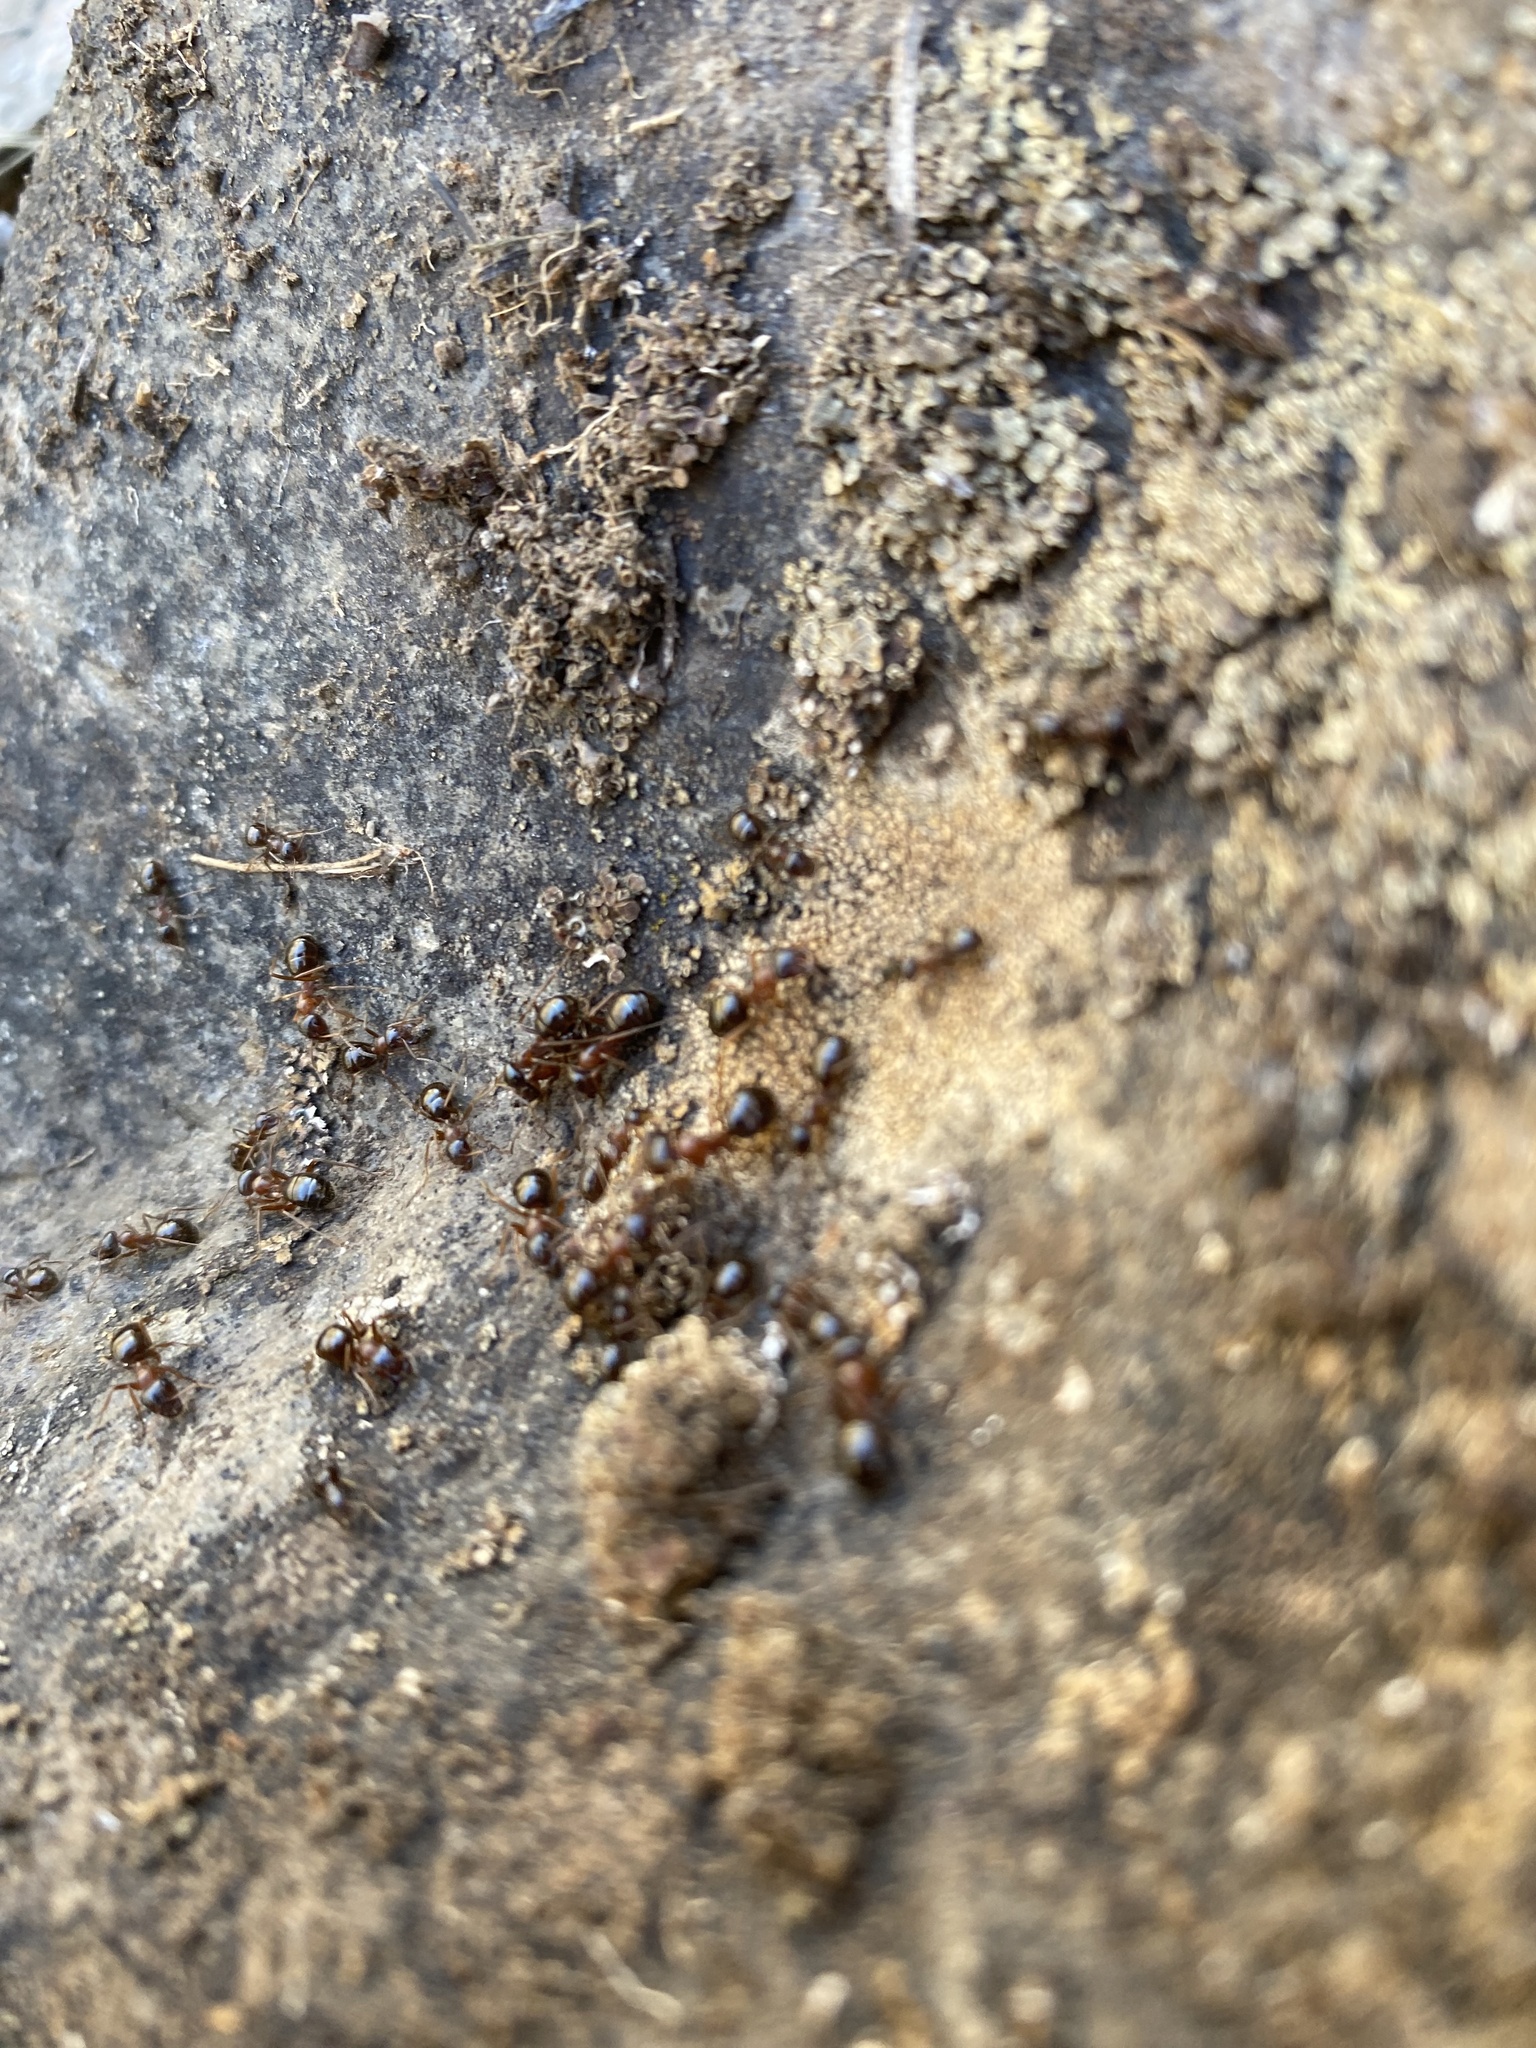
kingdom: Animalia
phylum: Arthropoda
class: Insecta
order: Hymenoptera
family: Formicidae
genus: Formica
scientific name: Formica subpolita
